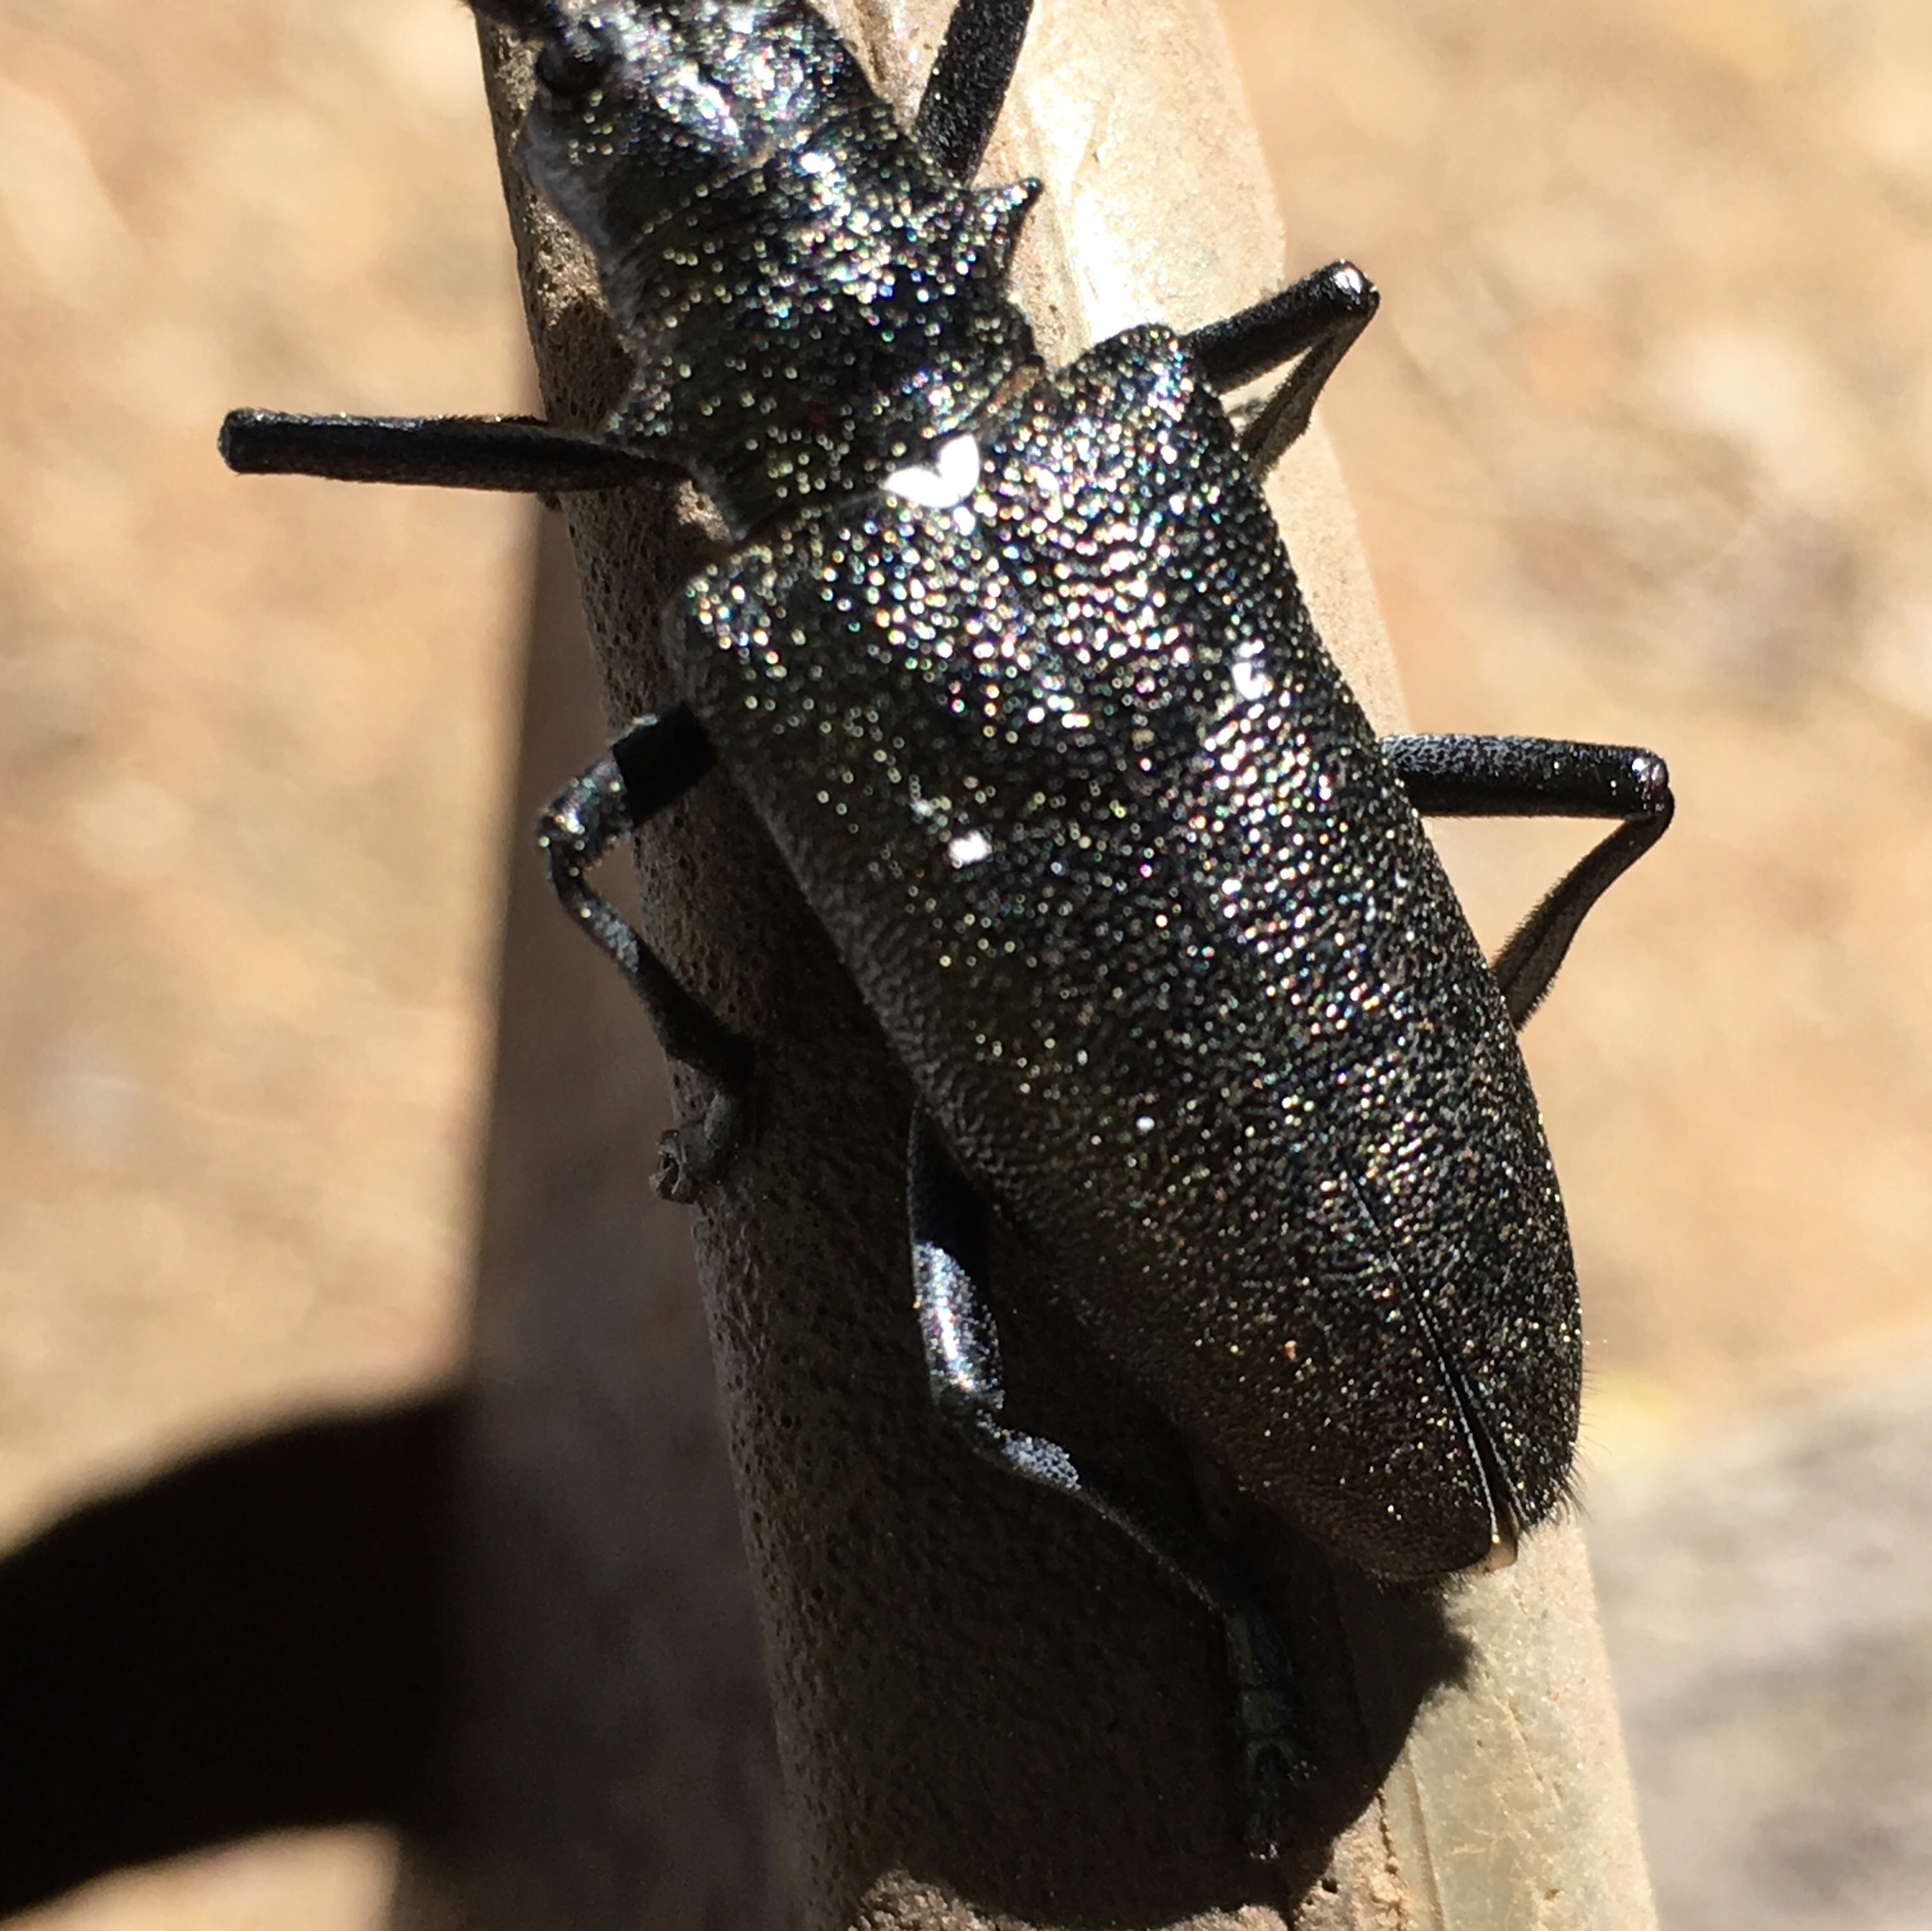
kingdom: Animalia
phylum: Arthropoda
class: Insecta
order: Coleoptera
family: Cerambycidae
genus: Monochamus
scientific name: Monochamus scutellatus
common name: White-spotted sawyer beetle
